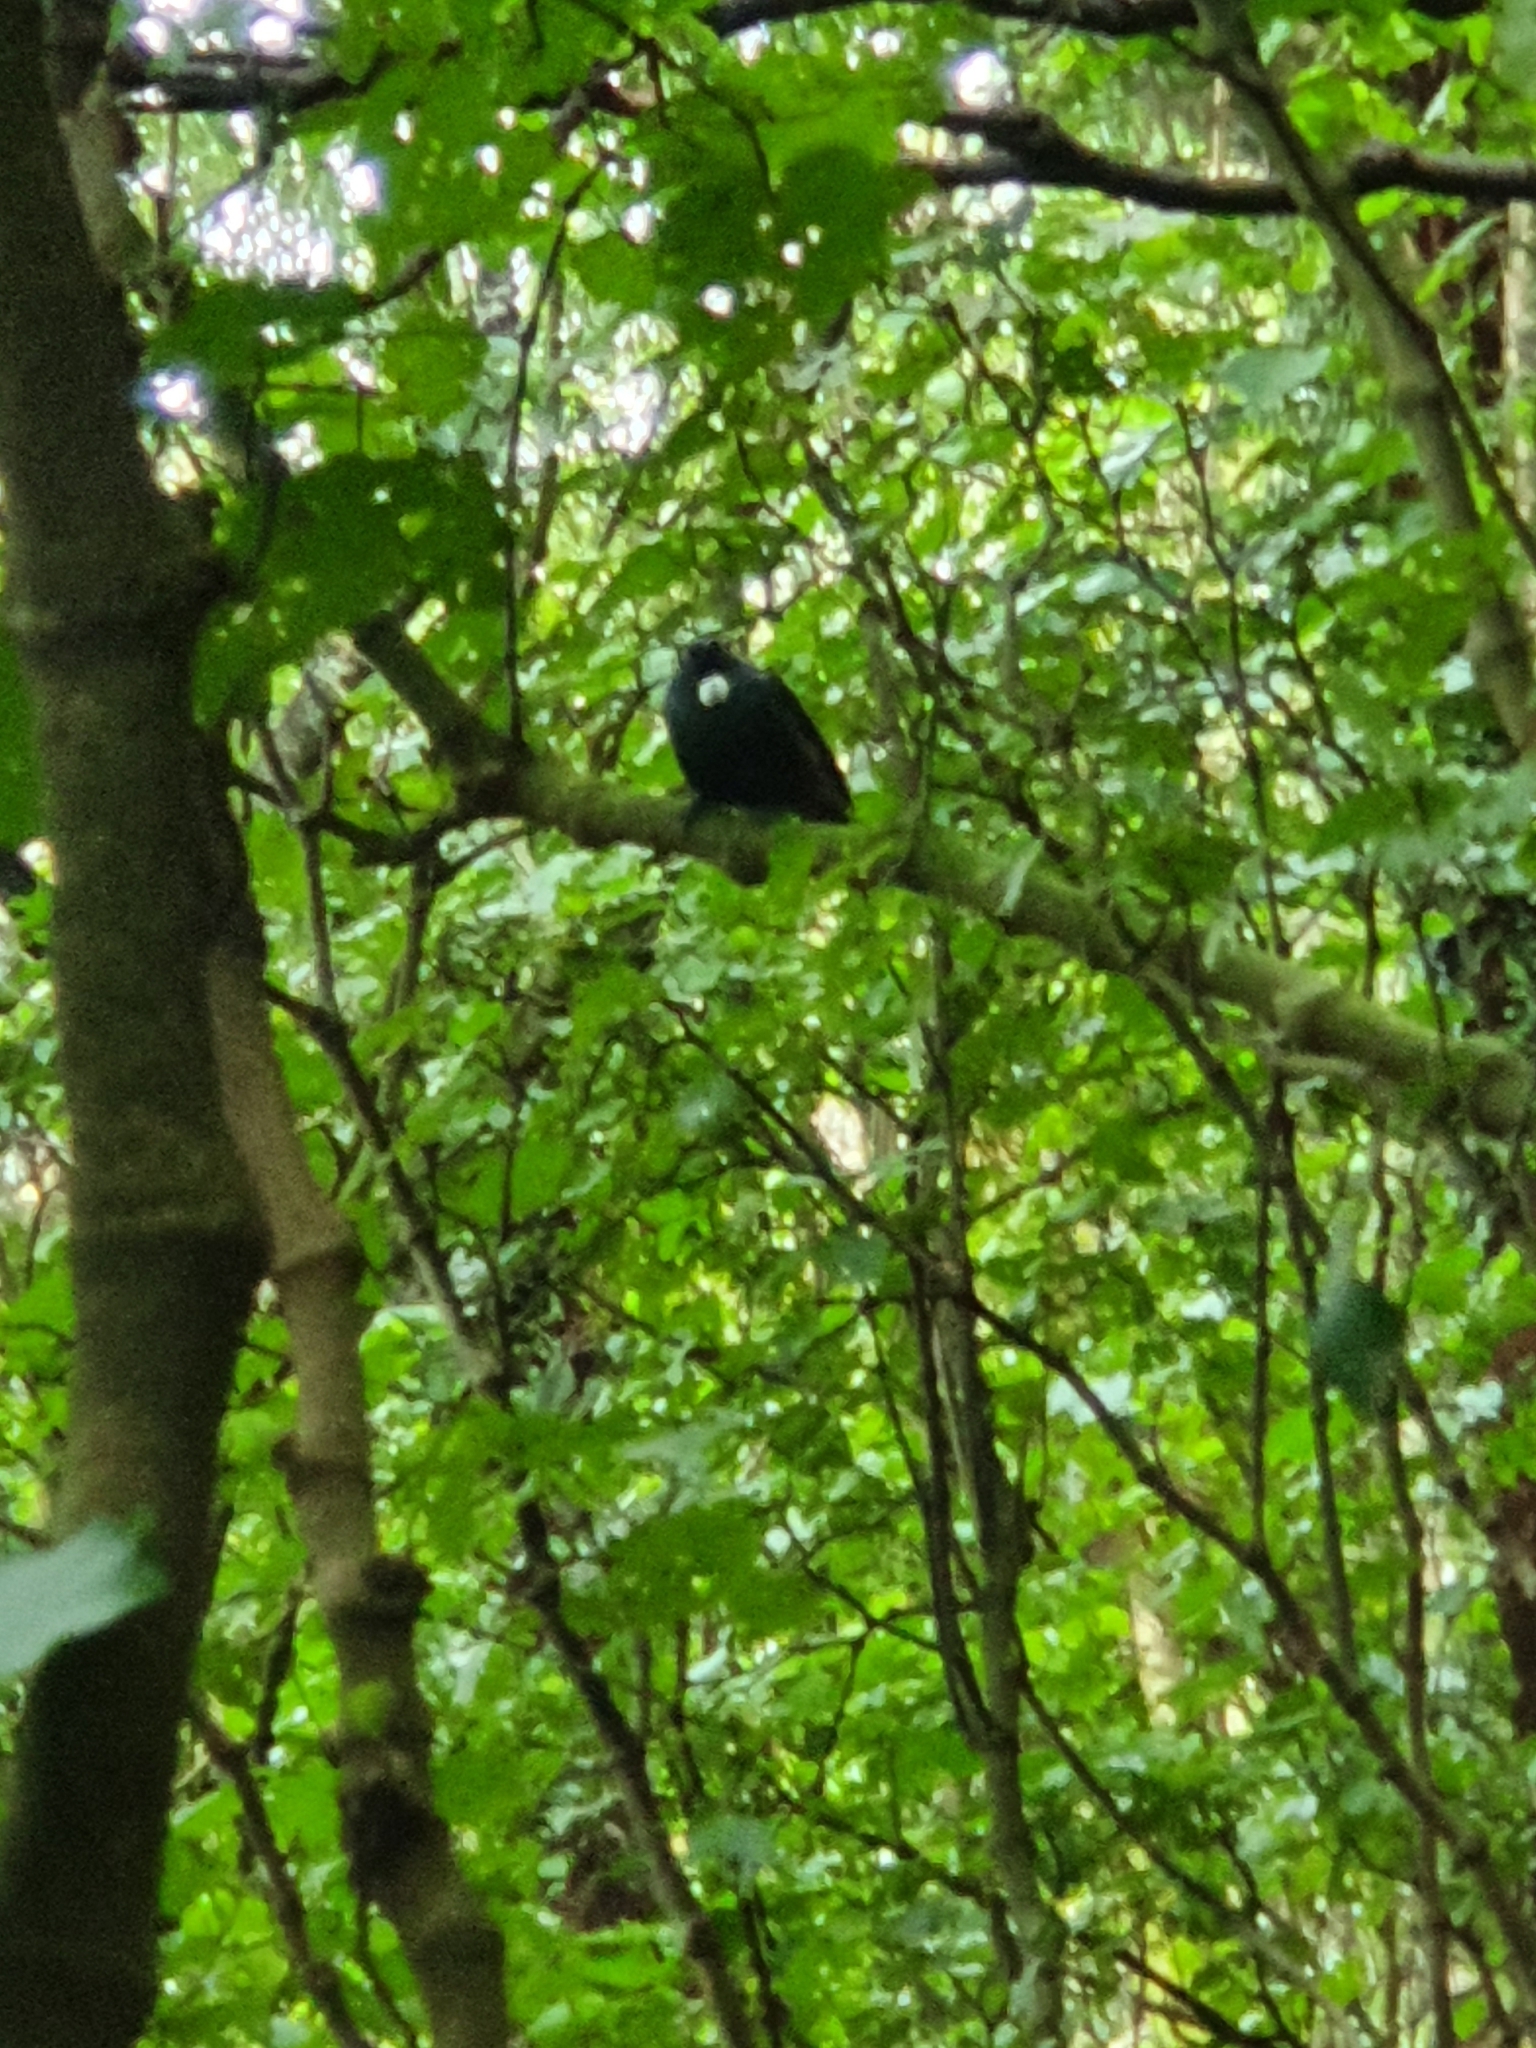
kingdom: Animalia
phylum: Chordata
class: Aves
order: Passeriformes
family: Meliphagidae
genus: Prosthemadera
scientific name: Prosthemadera novaeseelandiae
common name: Tui
